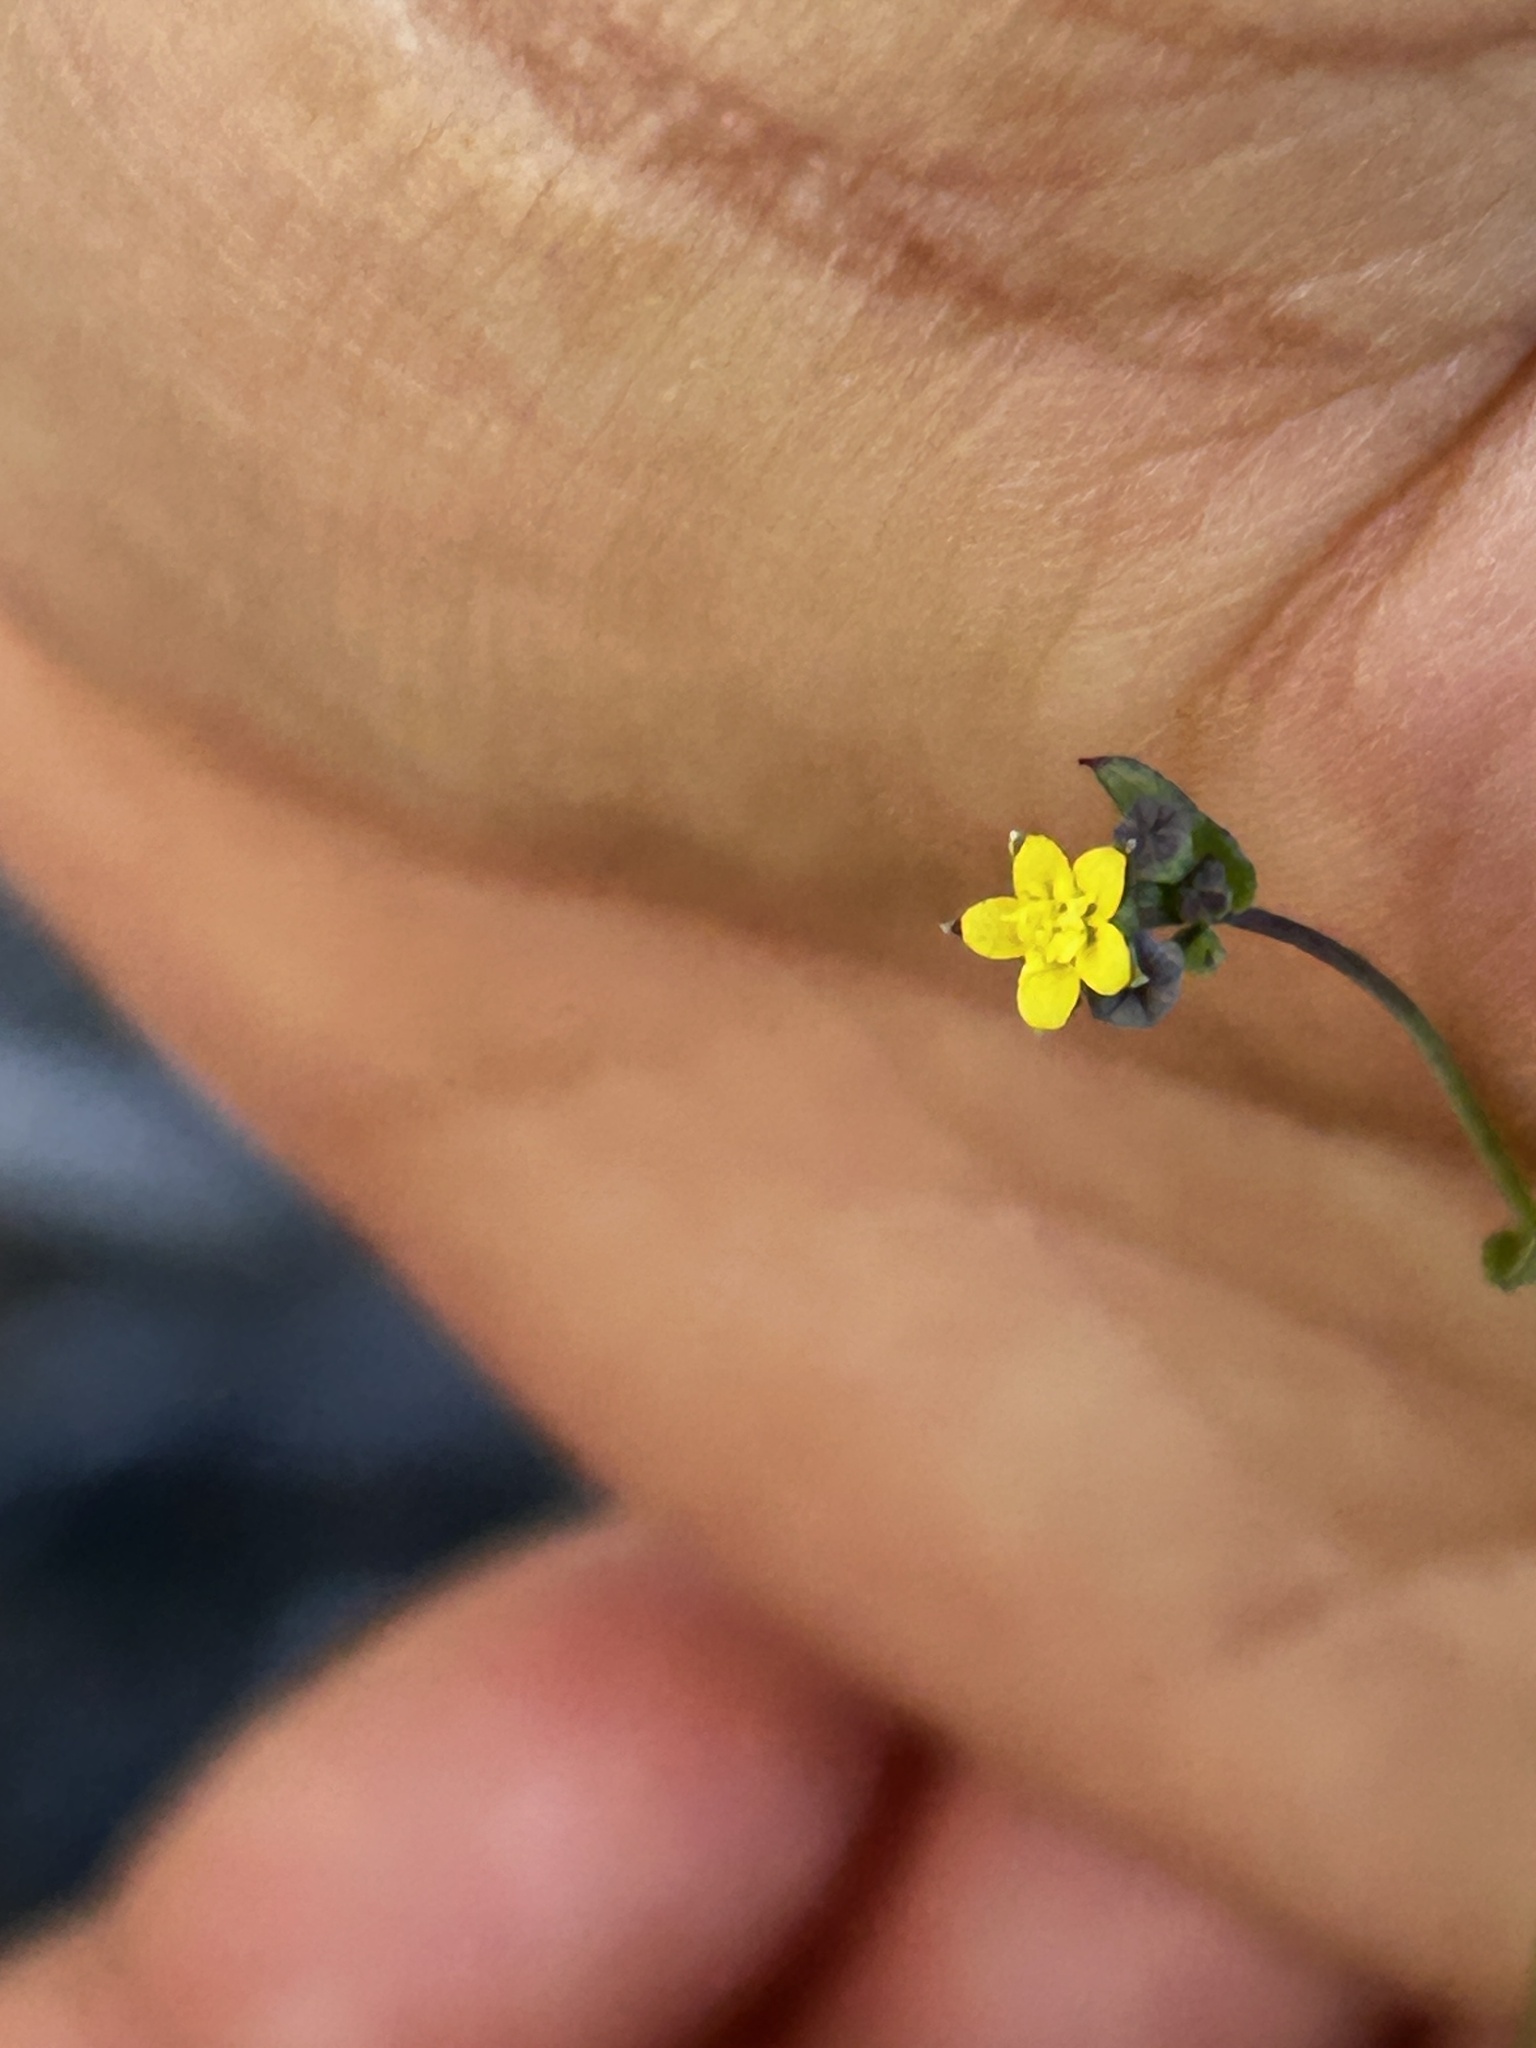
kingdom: Plantae
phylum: Tracheophyta
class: Magnoliopsida
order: Asterales
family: Asteraceae
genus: Gymnodiscus
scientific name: Gymnodiscus capillaris
